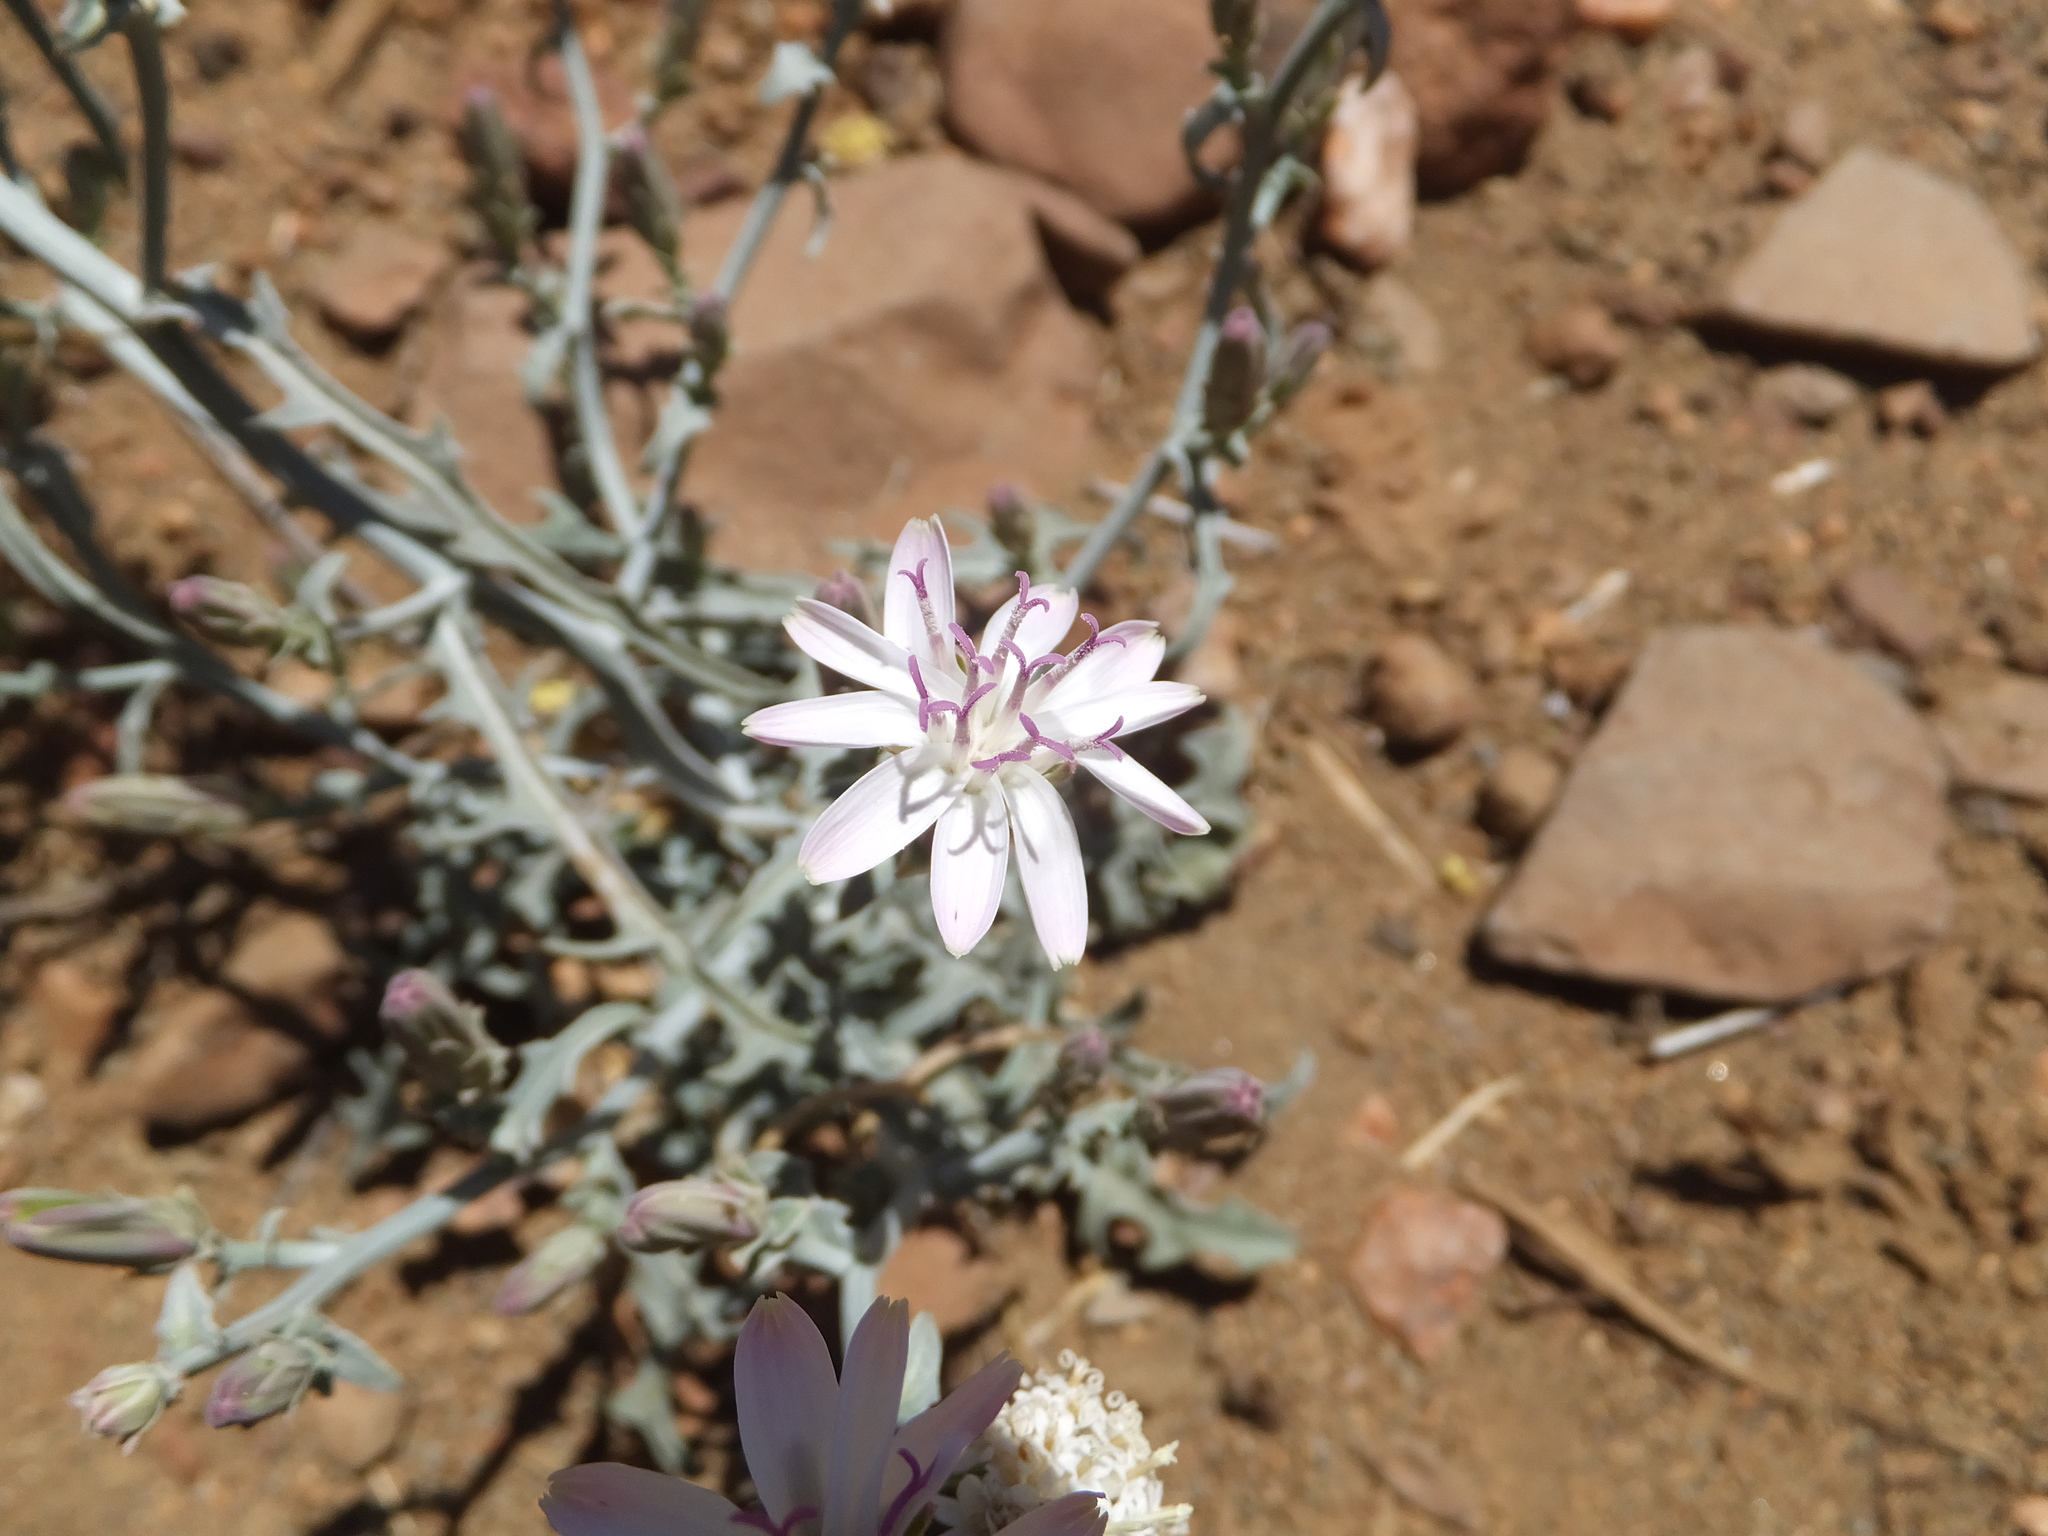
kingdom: Plantae
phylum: Tracheophyta
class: Magnoliopsida
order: Asterales
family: Asteraceae
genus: Stephanomeria
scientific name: Stephanomeria parryi
